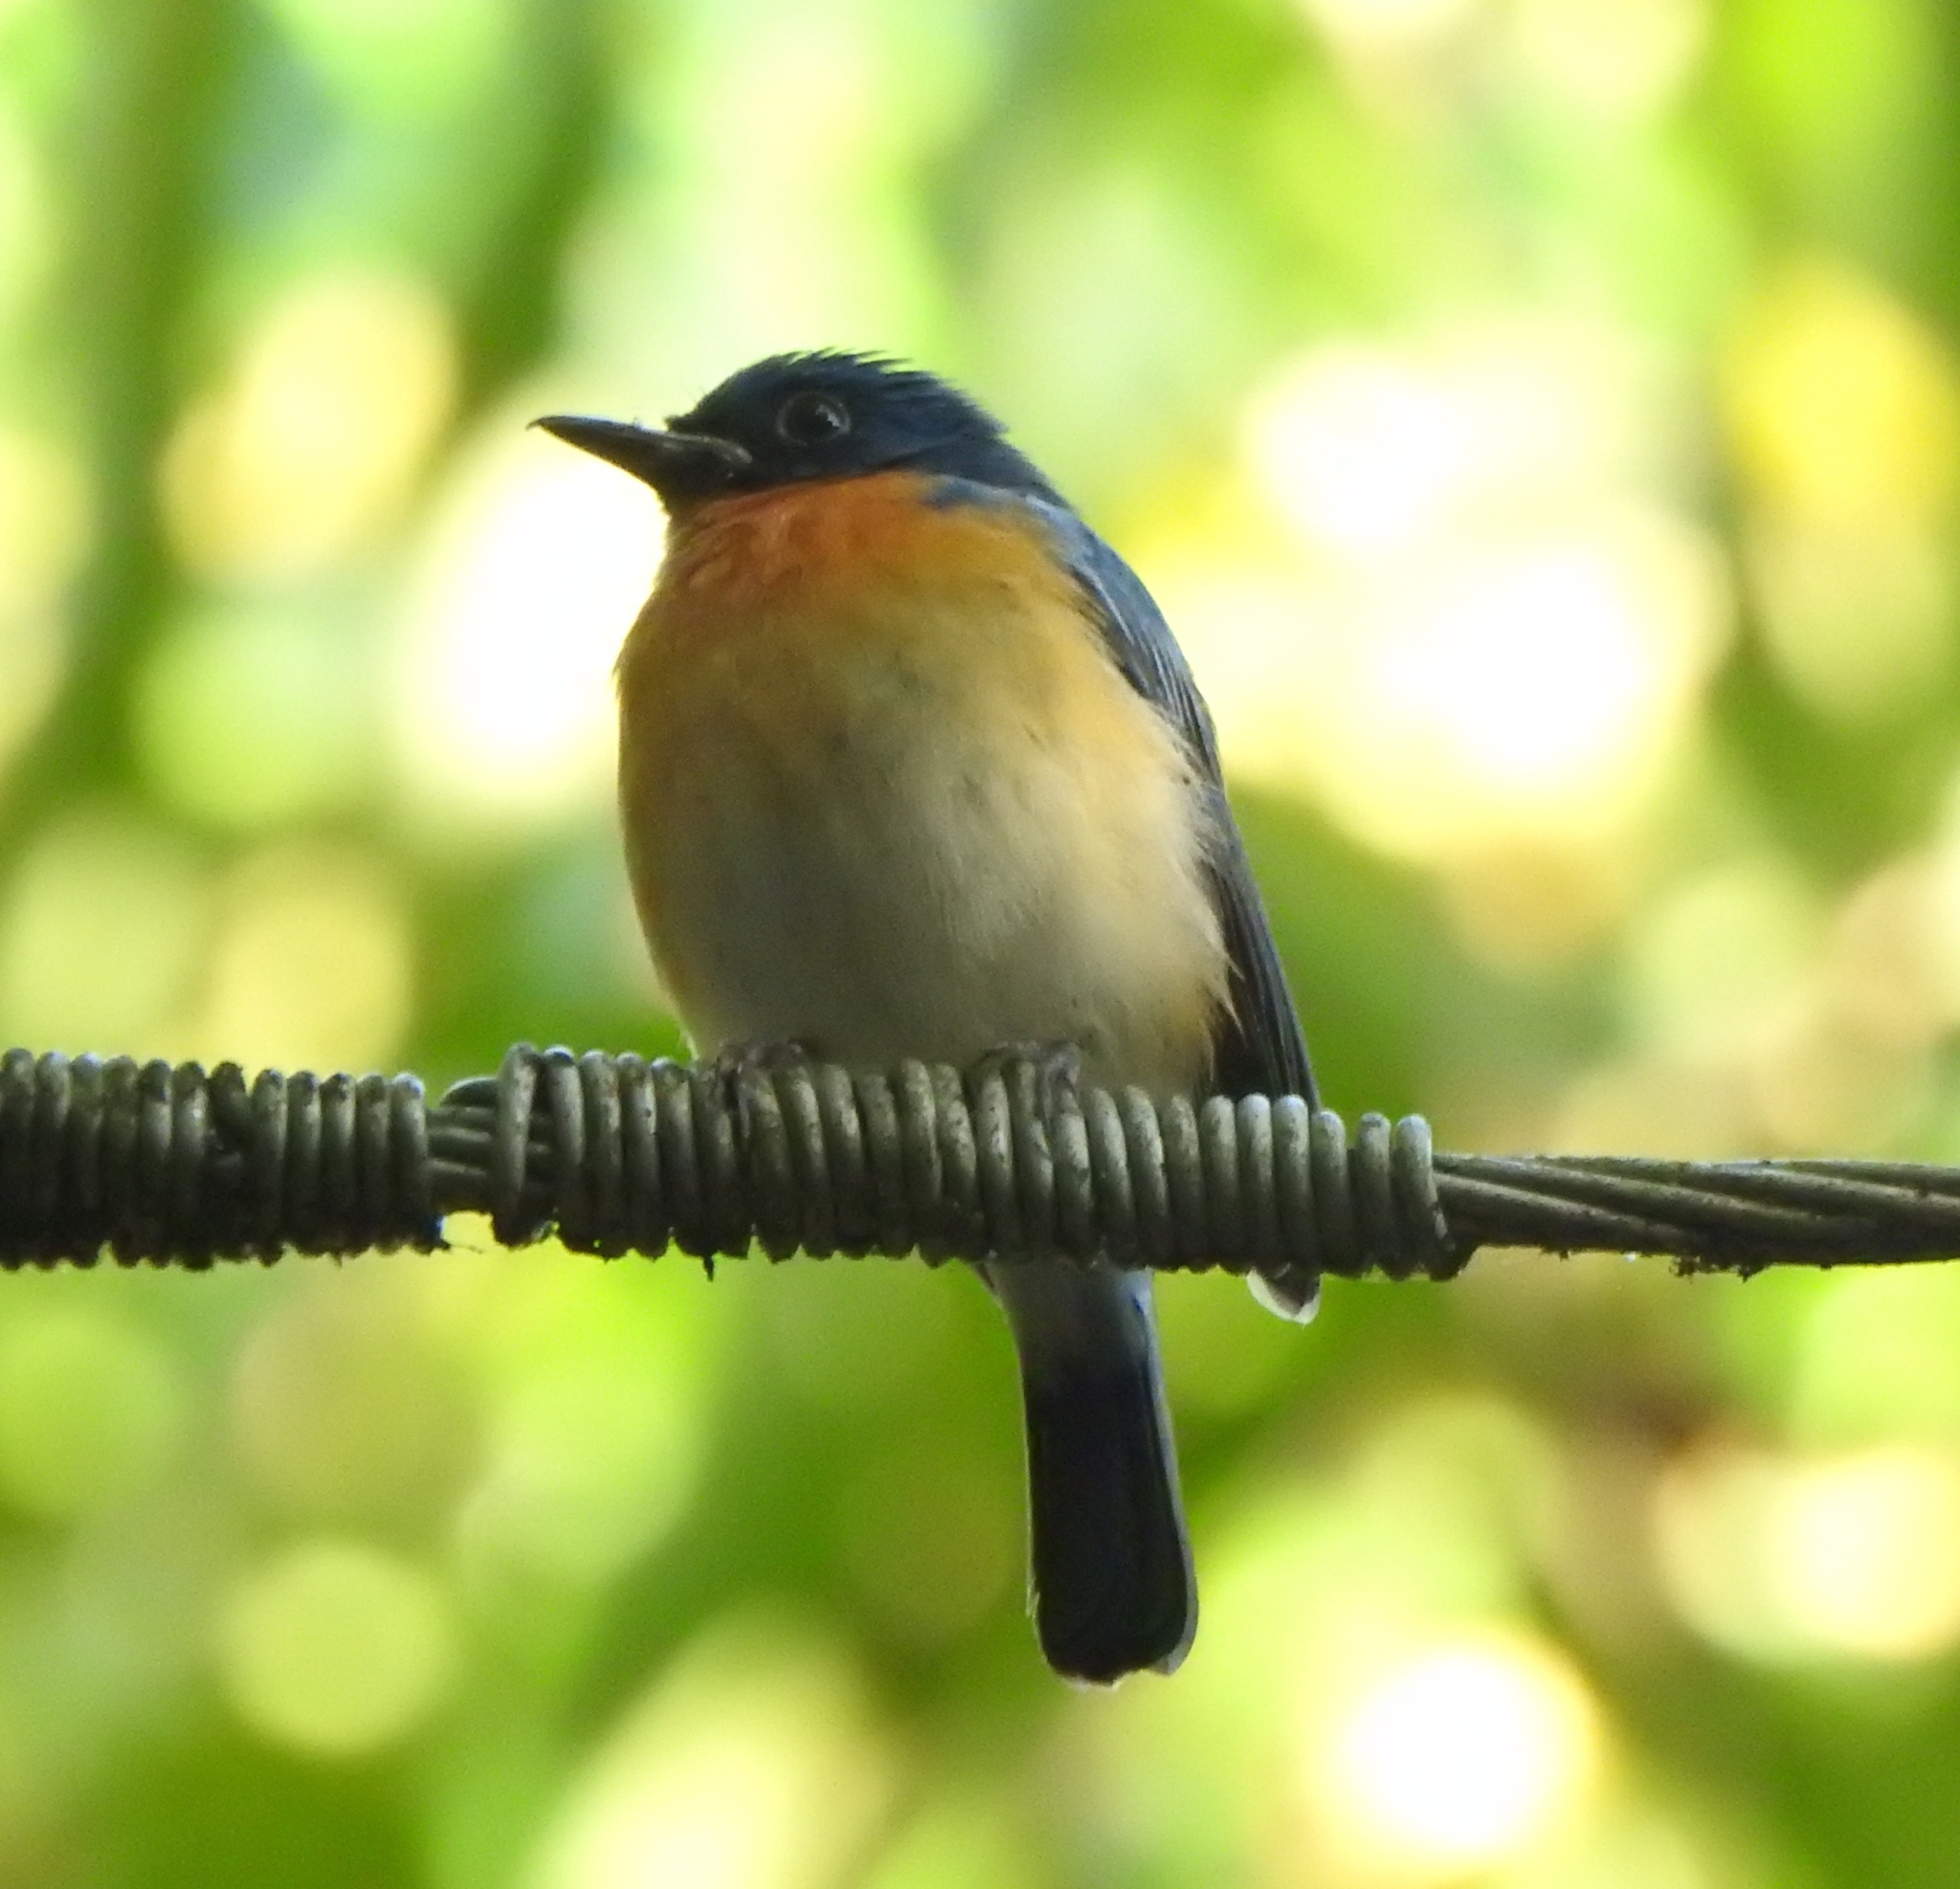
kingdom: Animalia
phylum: Chordata
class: Aves
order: Passeriformes
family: Muscicapidae
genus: Cyornis
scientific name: Cyornis tickelliae
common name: Tickell's blue flycatcher
